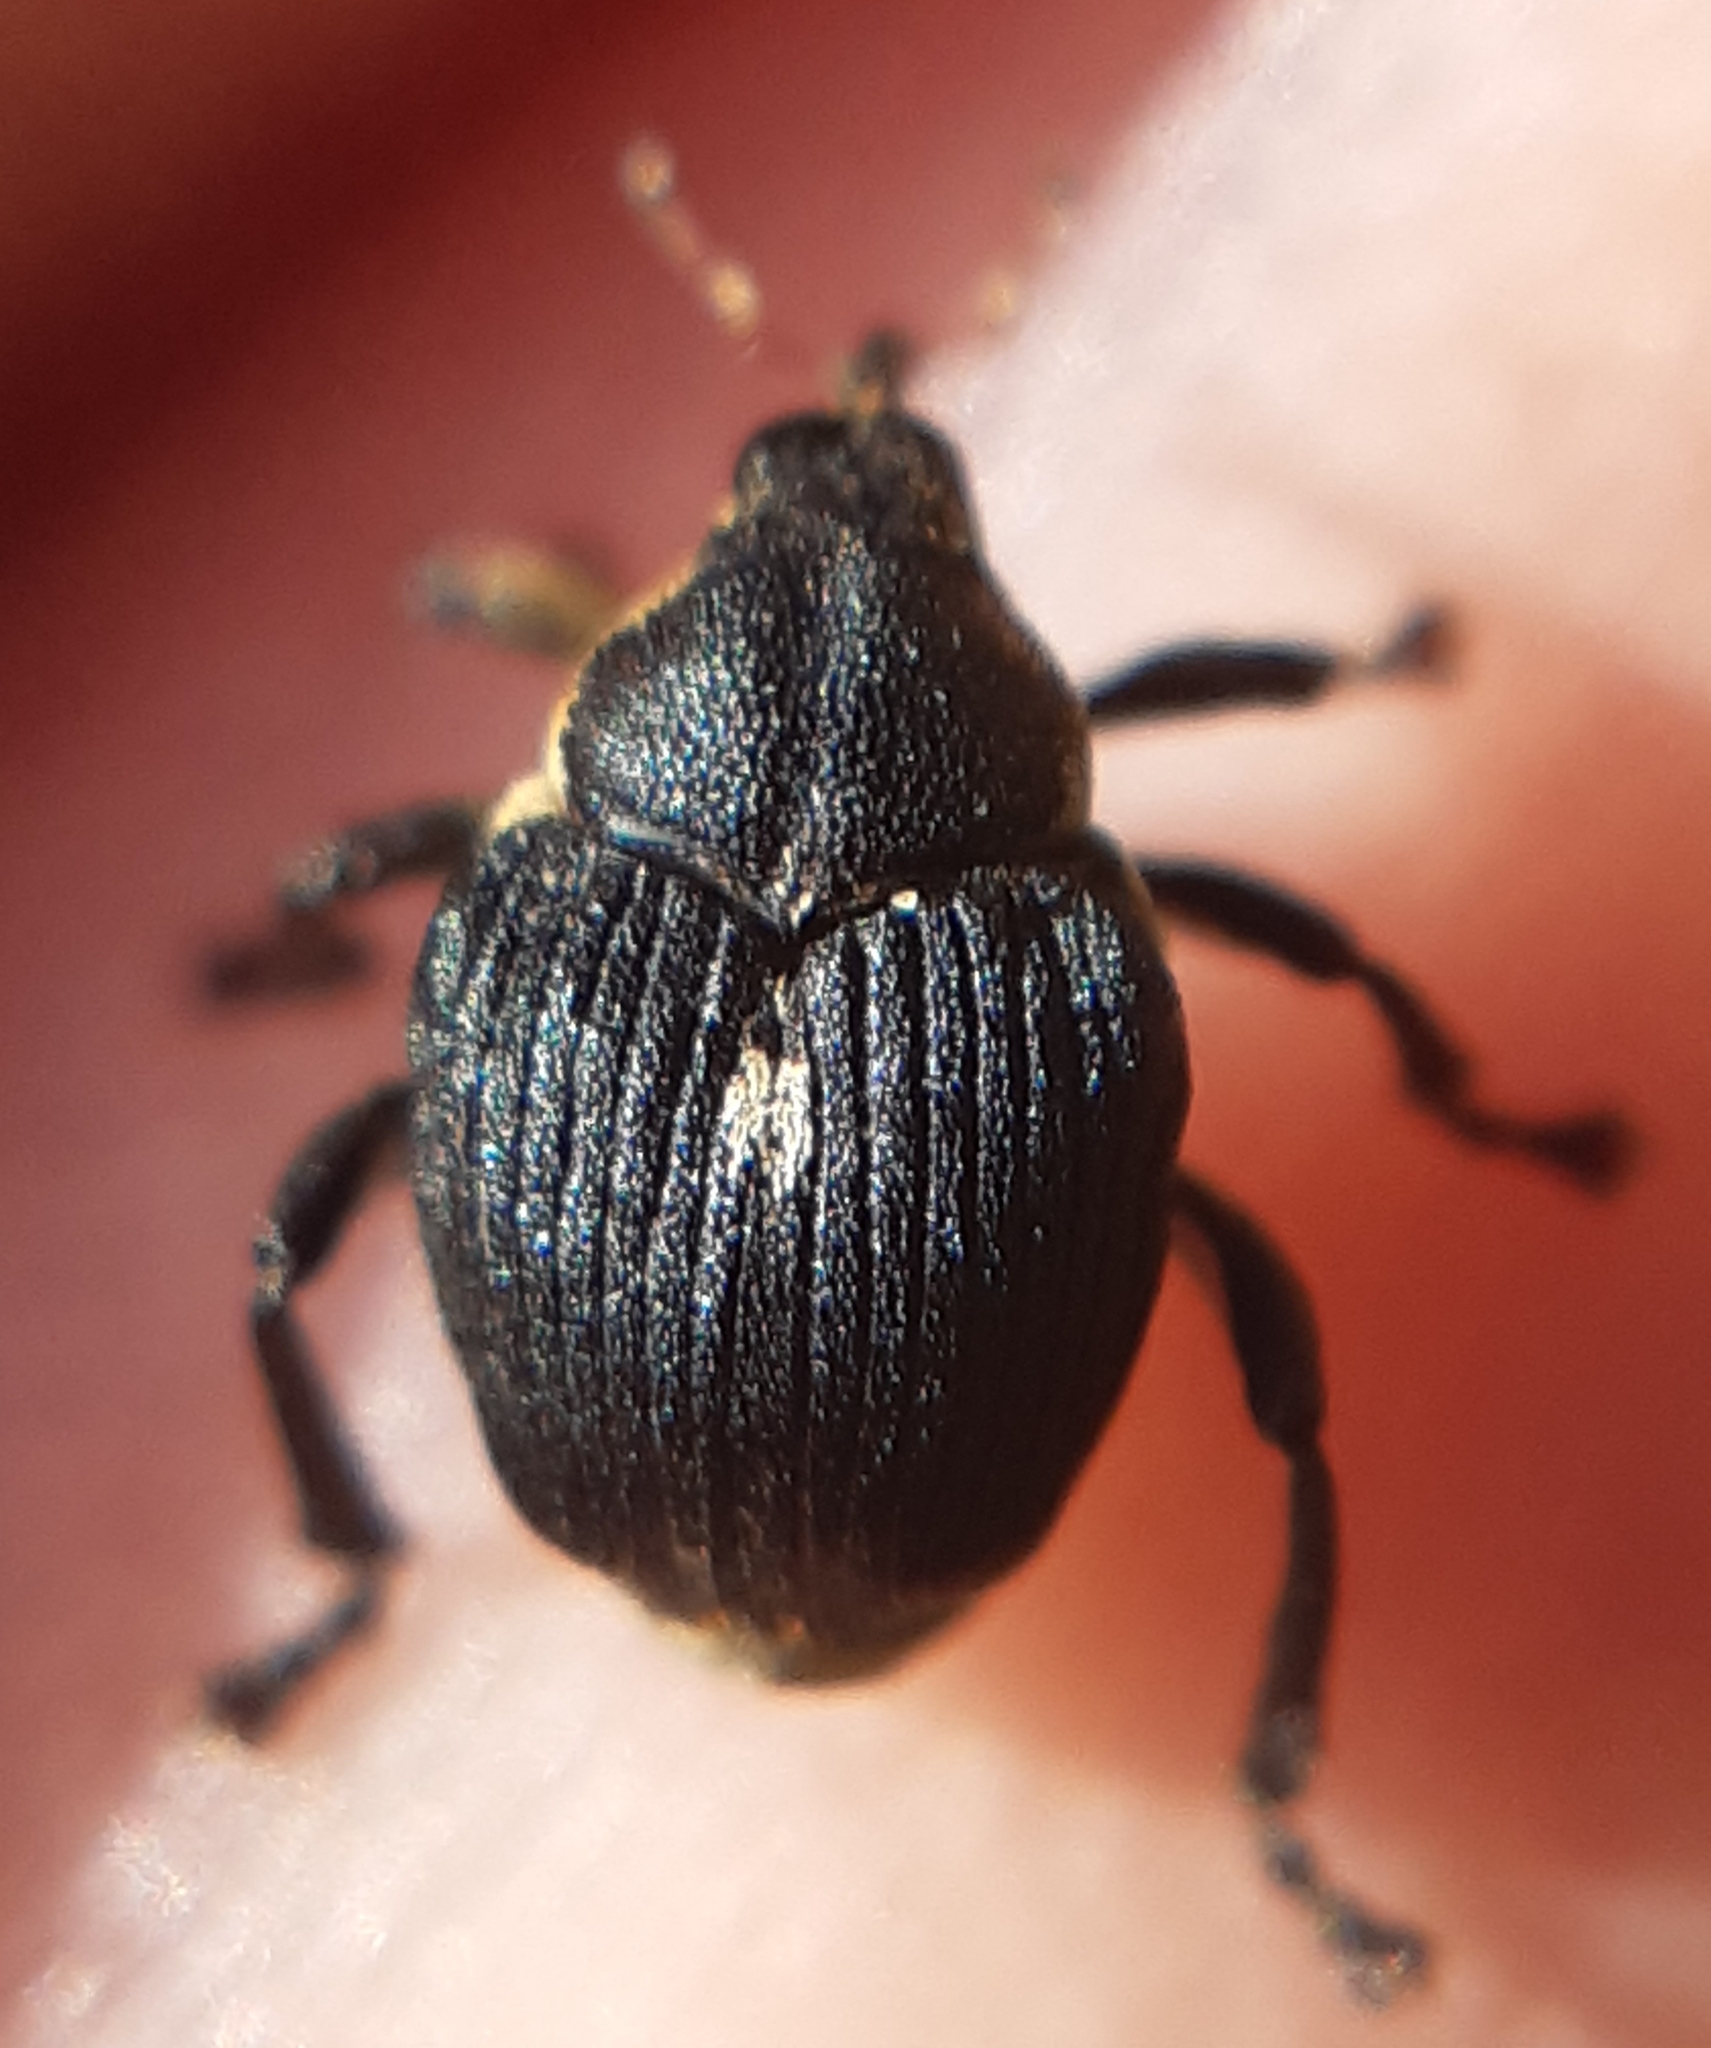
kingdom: Animalia
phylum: Arthropoda
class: Insecta
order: Coleoptera
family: Curculionidae
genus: Mononychus
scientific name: Mononychus punctumalbum
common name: Iris weevil
